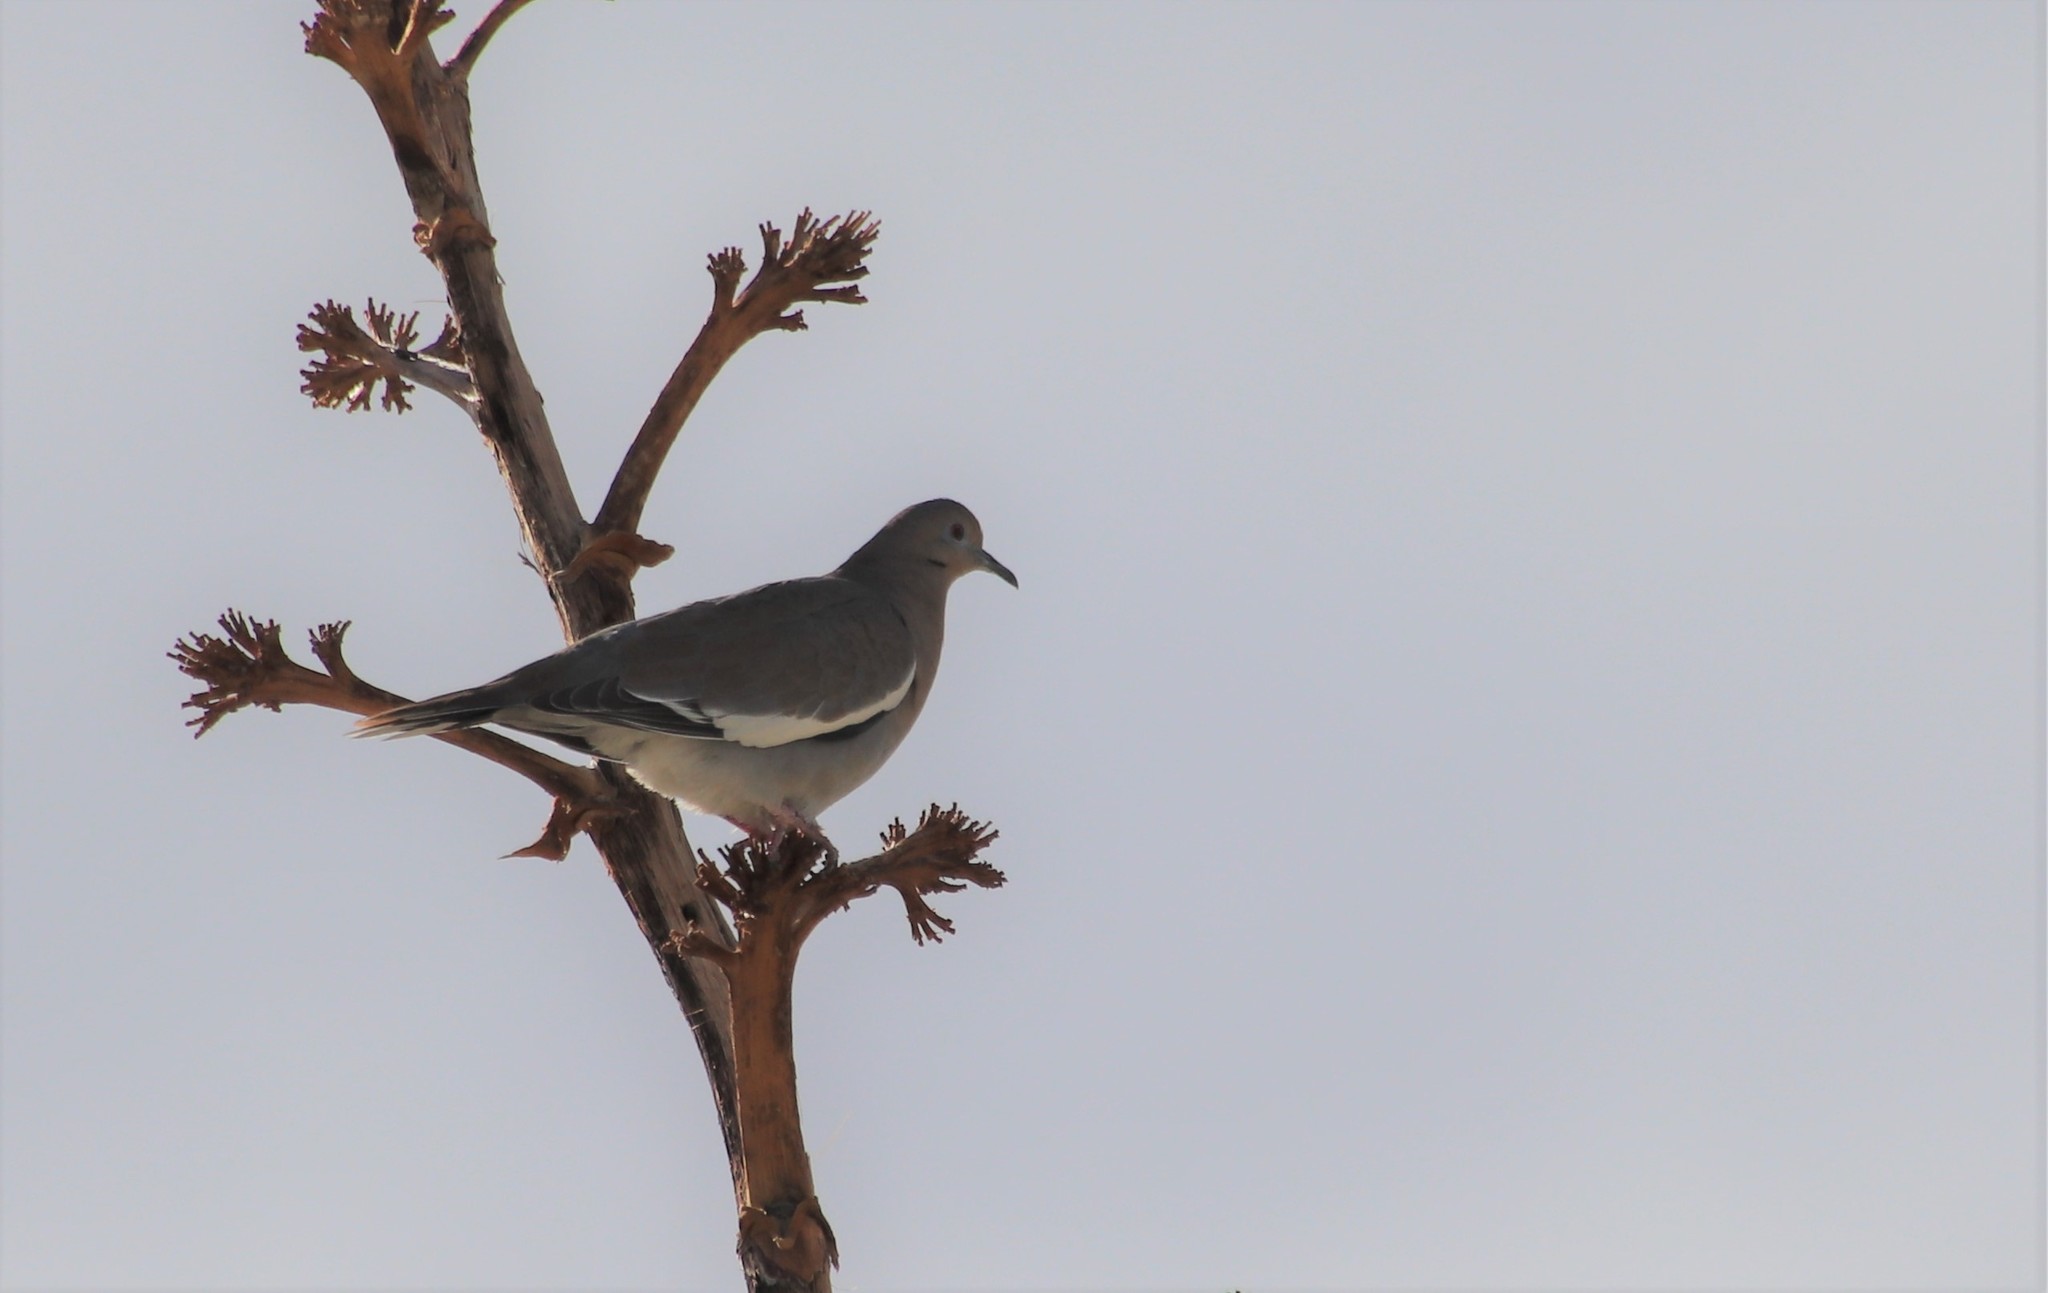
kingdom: Animalia
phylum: Chordata
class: Aves
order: Columbiformes
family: Columbidae
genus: Zenaida
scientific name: Zenaida asiatica
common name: White-winged dove
